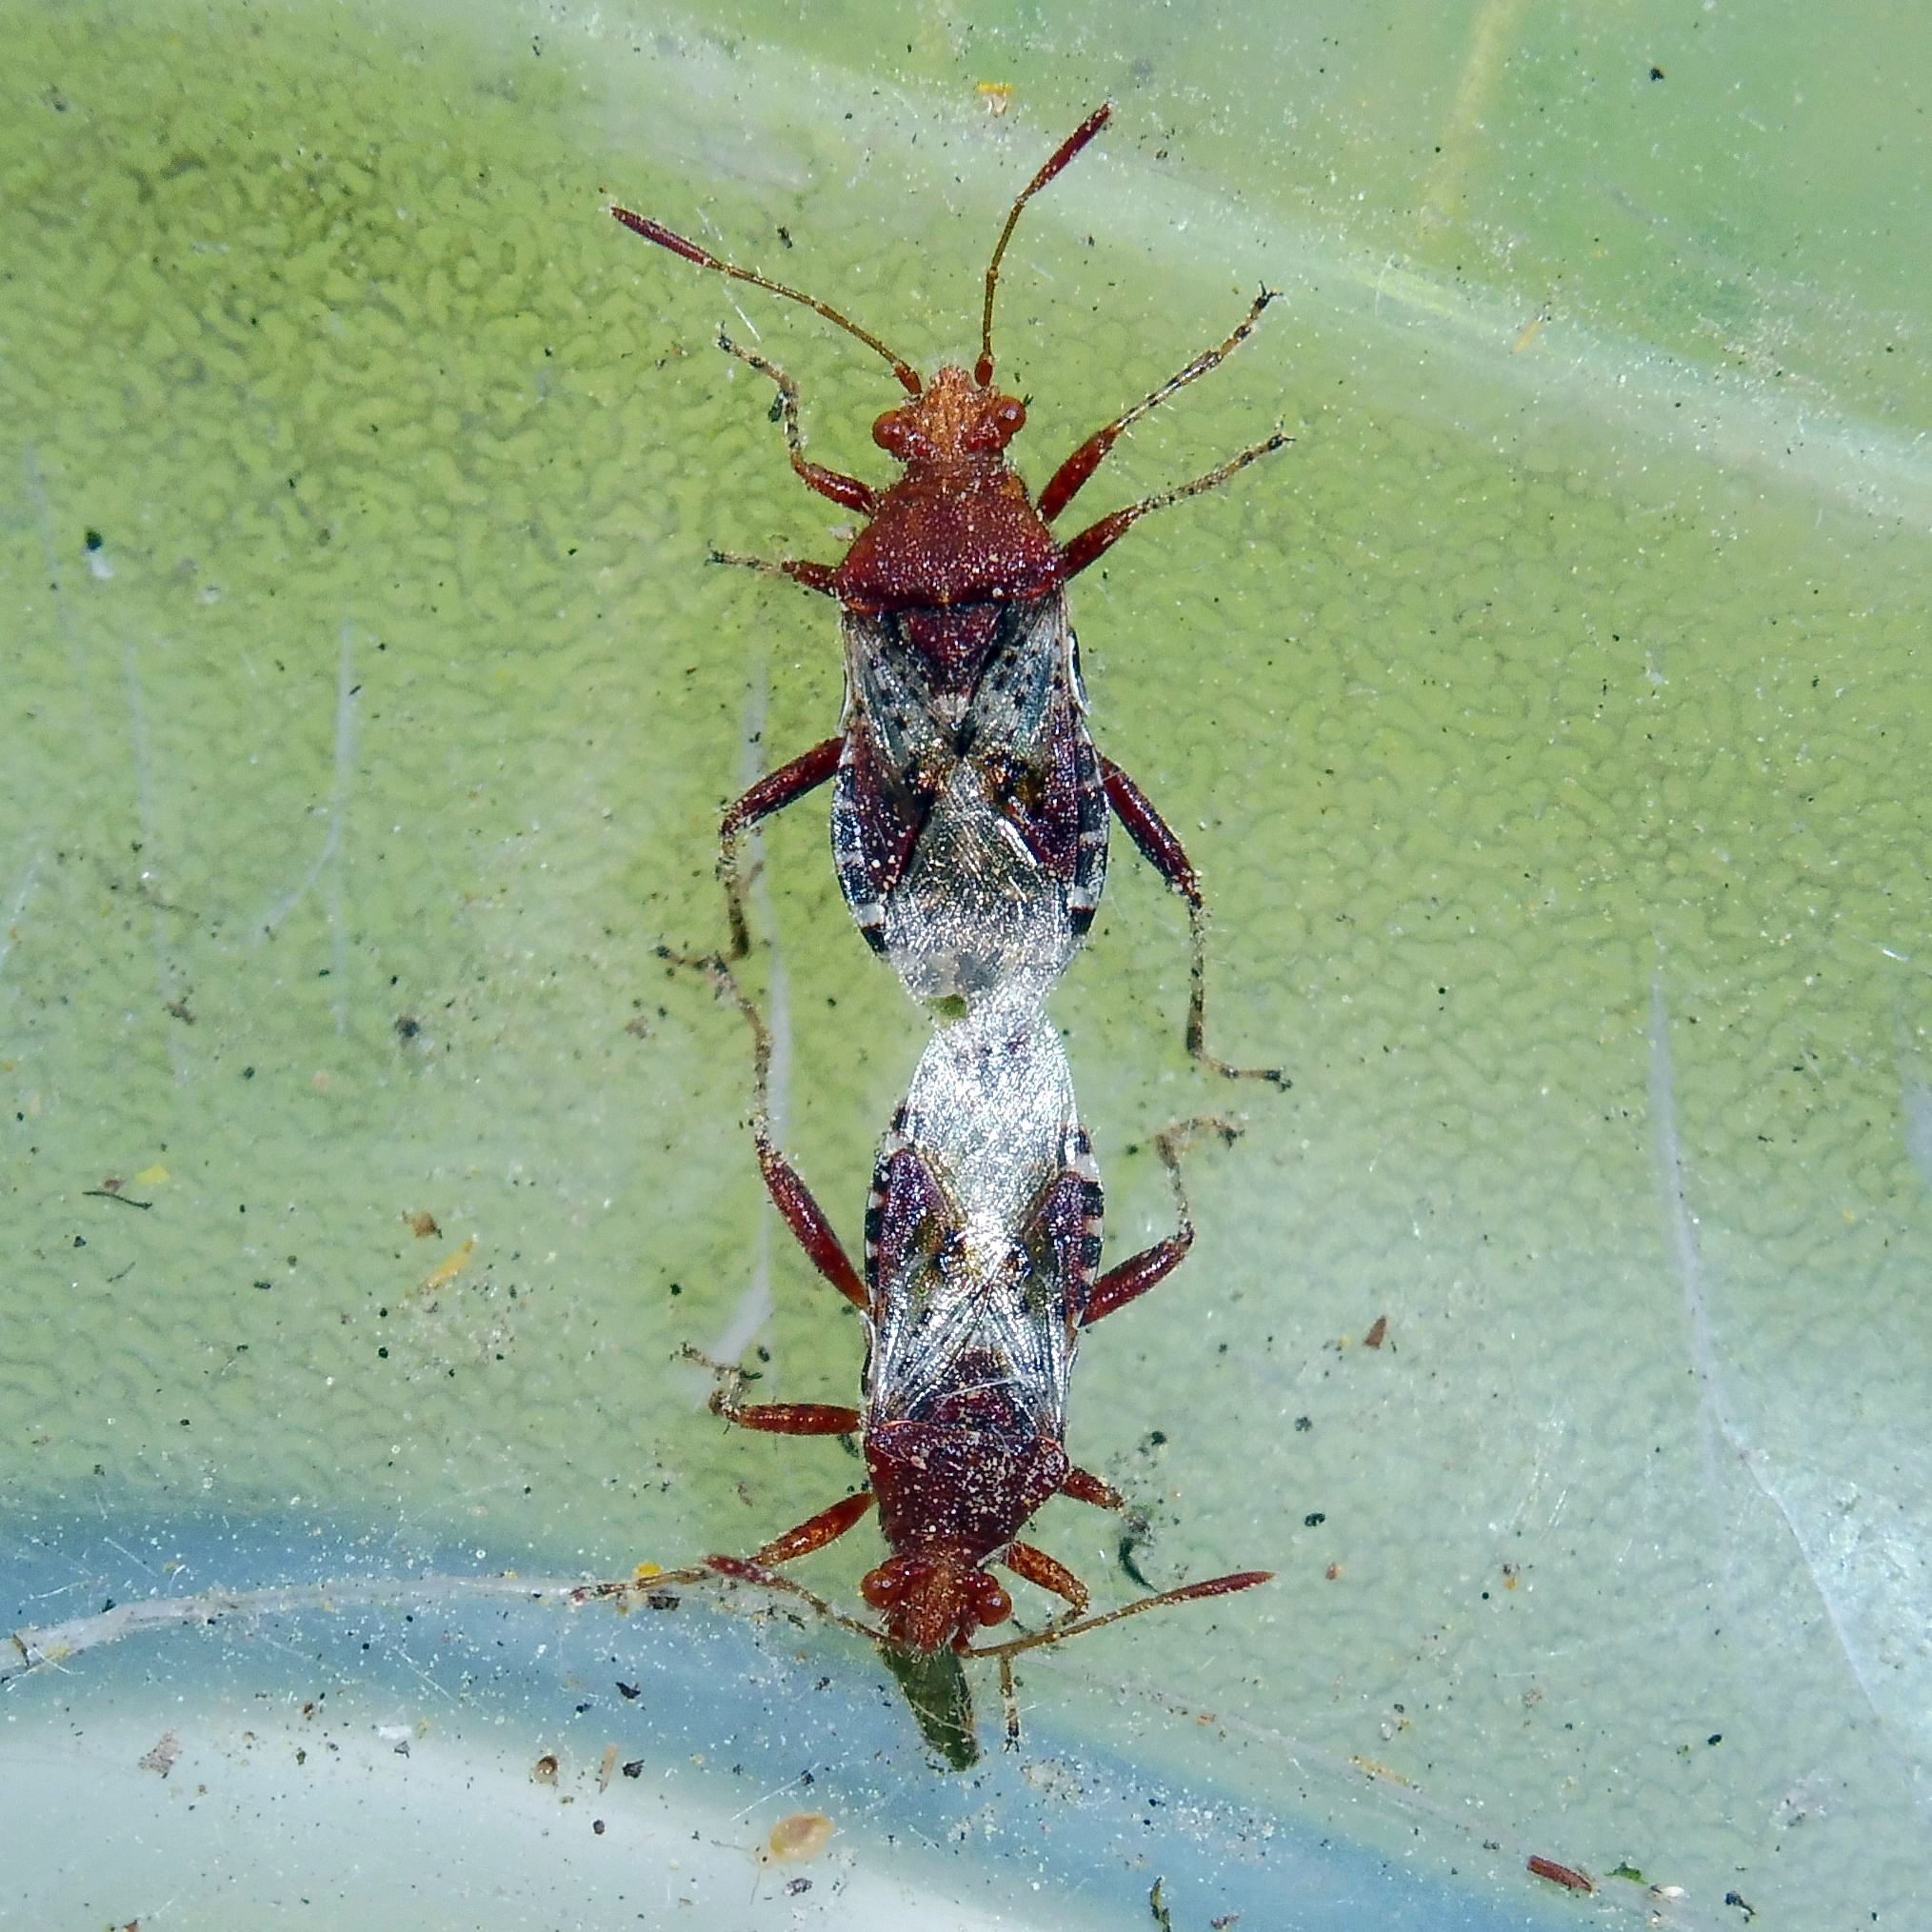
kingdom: Animalia
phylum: Arthropoda
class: Insecta
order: Hemiptera
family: Rhopalidae
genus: Rhopalus
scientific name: Rhopalus subrufus
